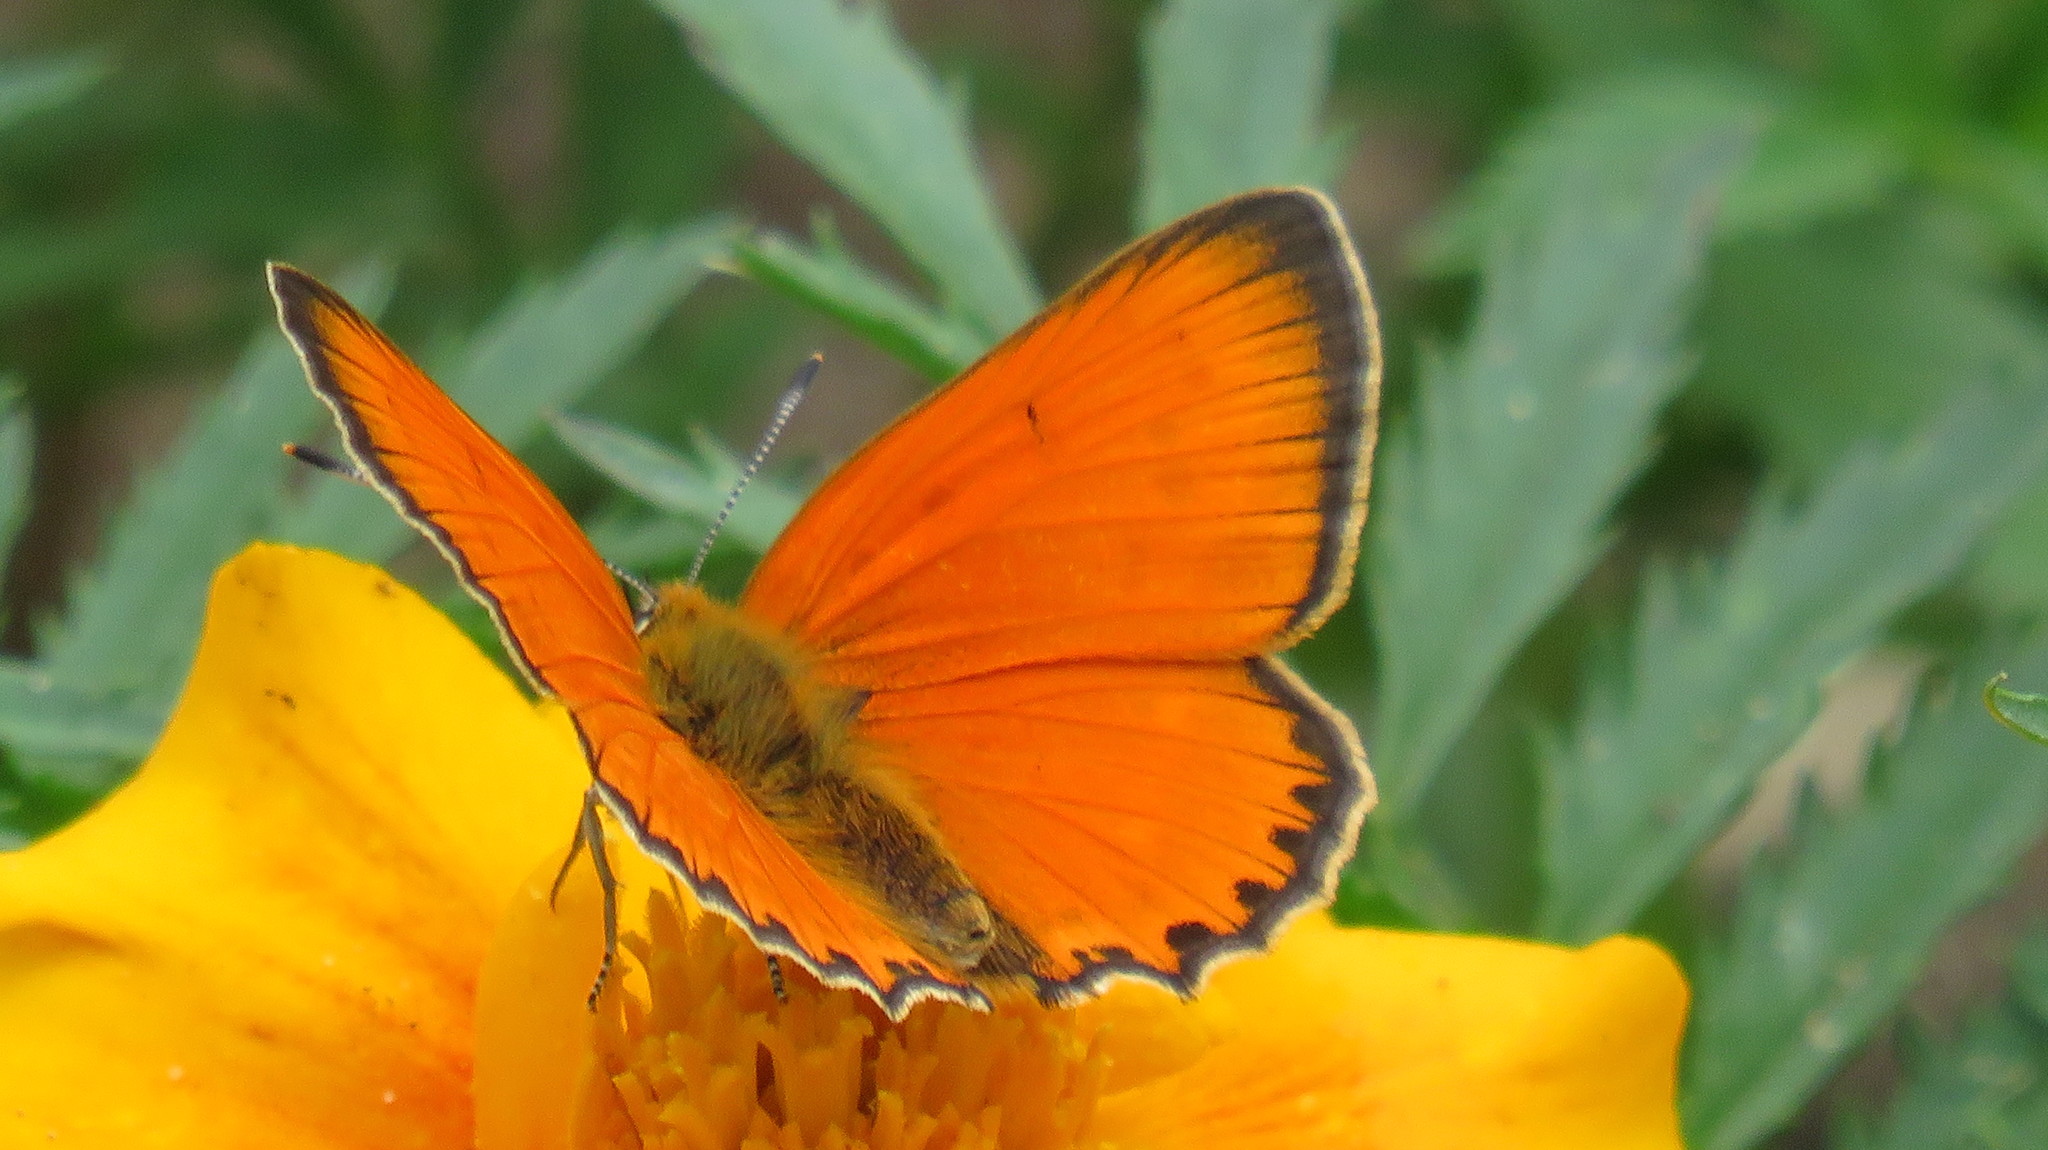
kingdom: Animalia
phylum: Arthropoda
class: Insecta
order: Lepidoptera
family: Lycaenidae
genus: Lycaena
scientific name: Lycaena virgaureae
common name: Scarce copper
